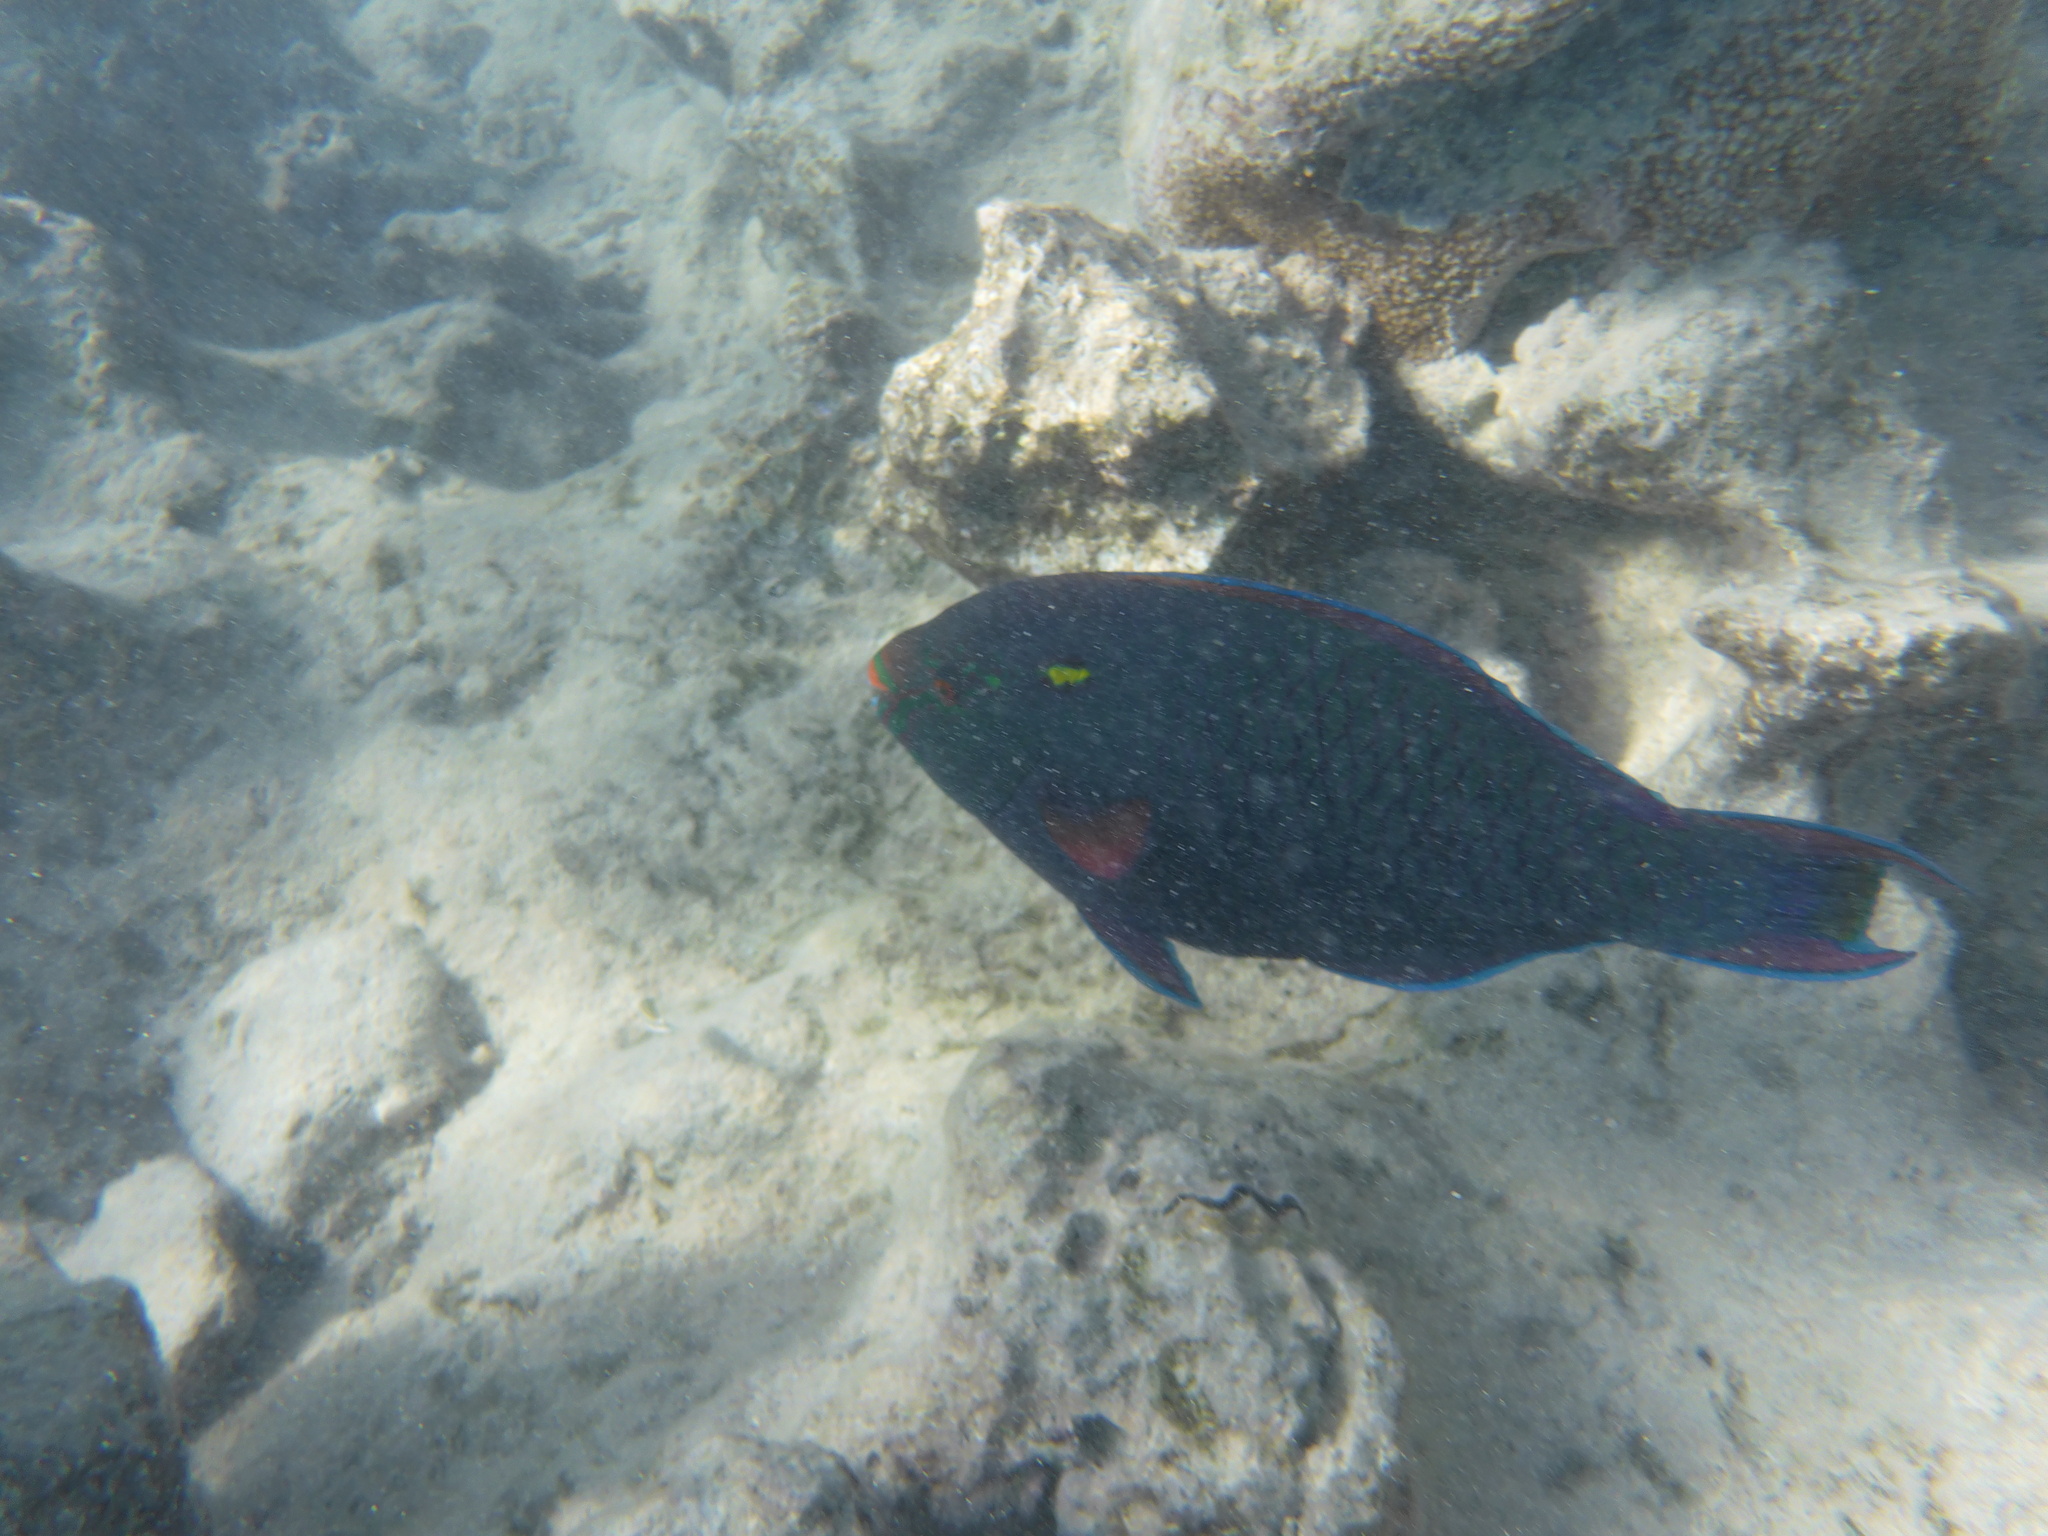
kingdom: Animalia
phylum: Chordata
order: Perciformes
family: Scaridae
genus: Scarus
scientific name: Scarus niger
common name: Dusky parrotfish
